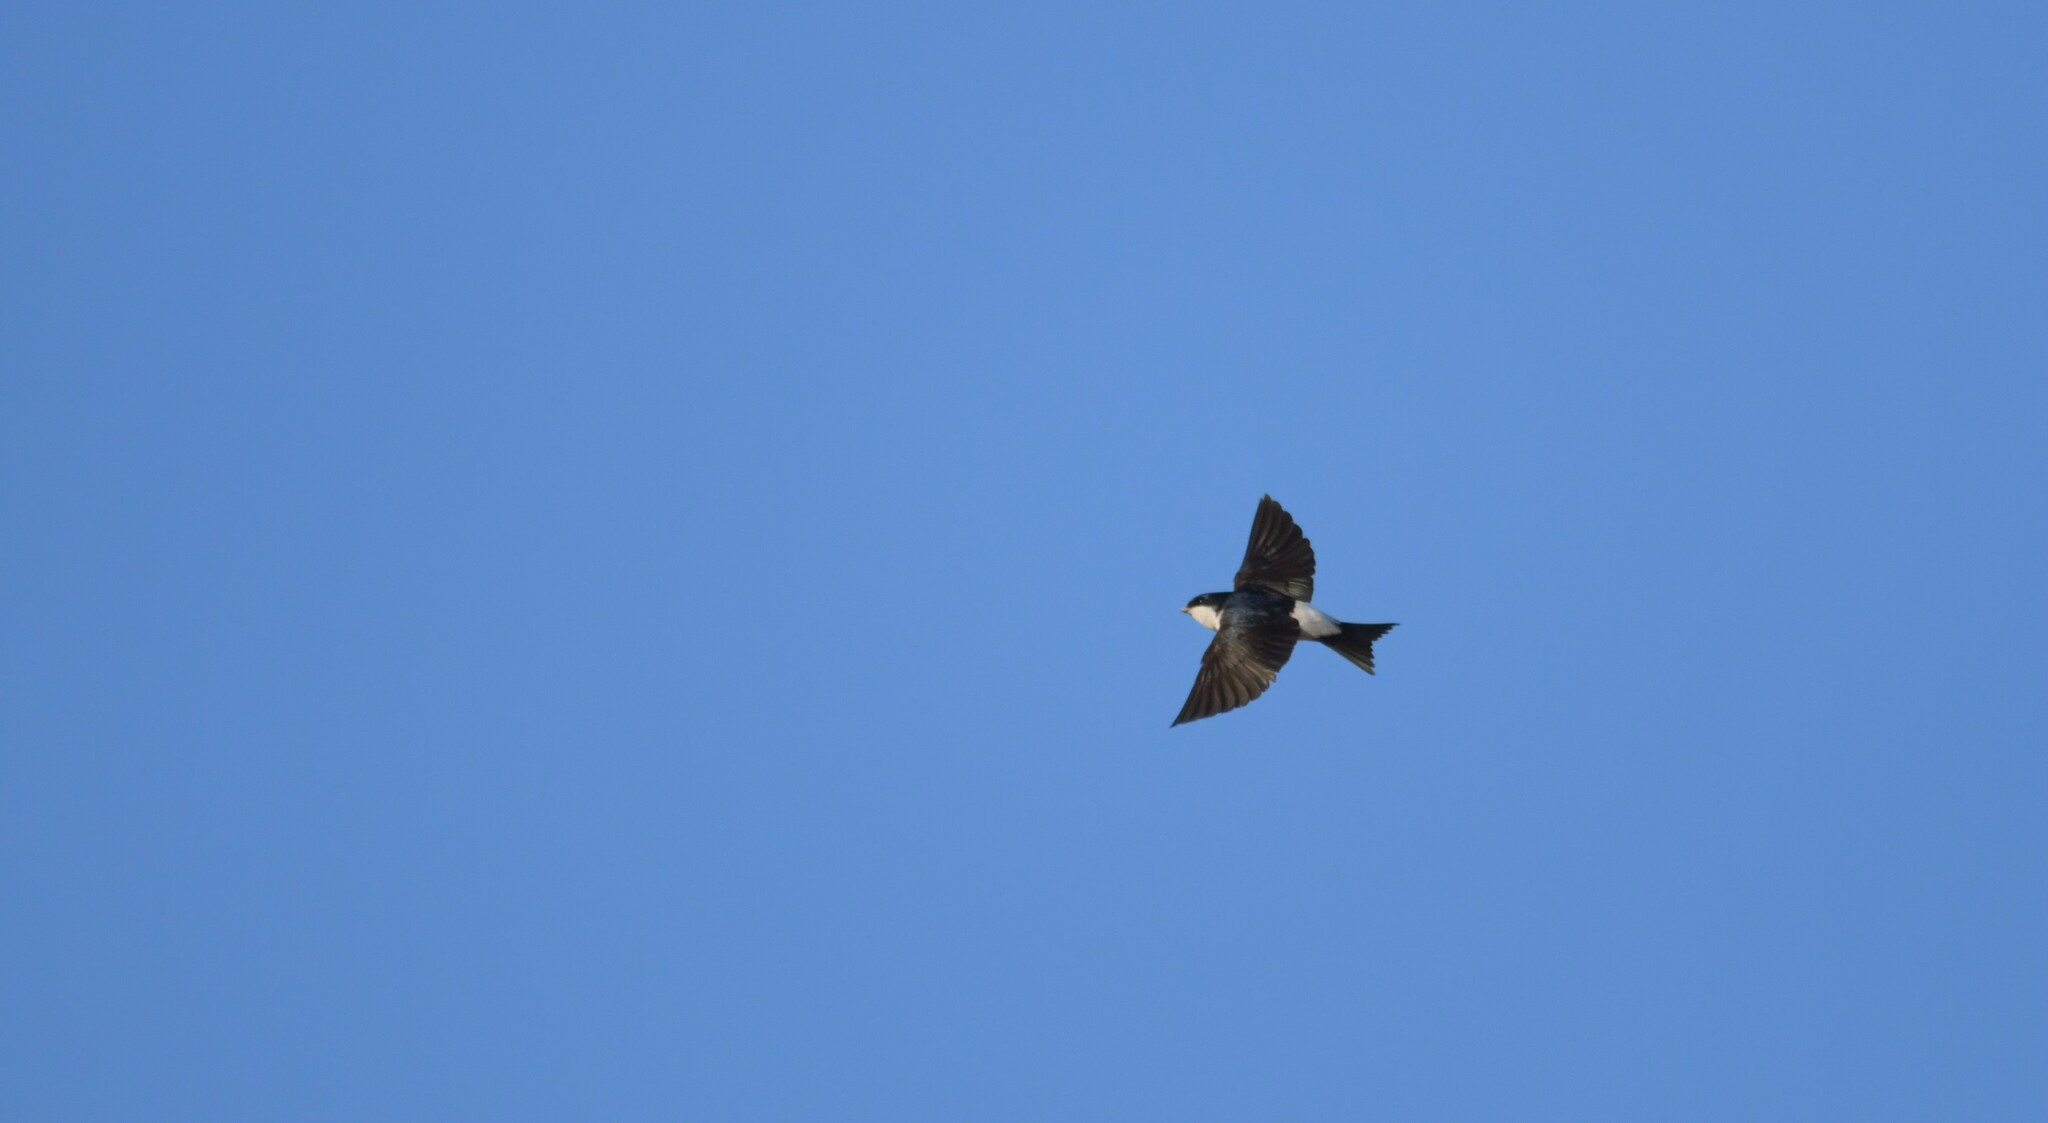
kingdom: Animalia
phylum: Chordata
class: Aves
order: Passeriformes
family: Hirundinidae
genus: Delichon
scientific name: Delichon urbicum
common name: Common house martin
